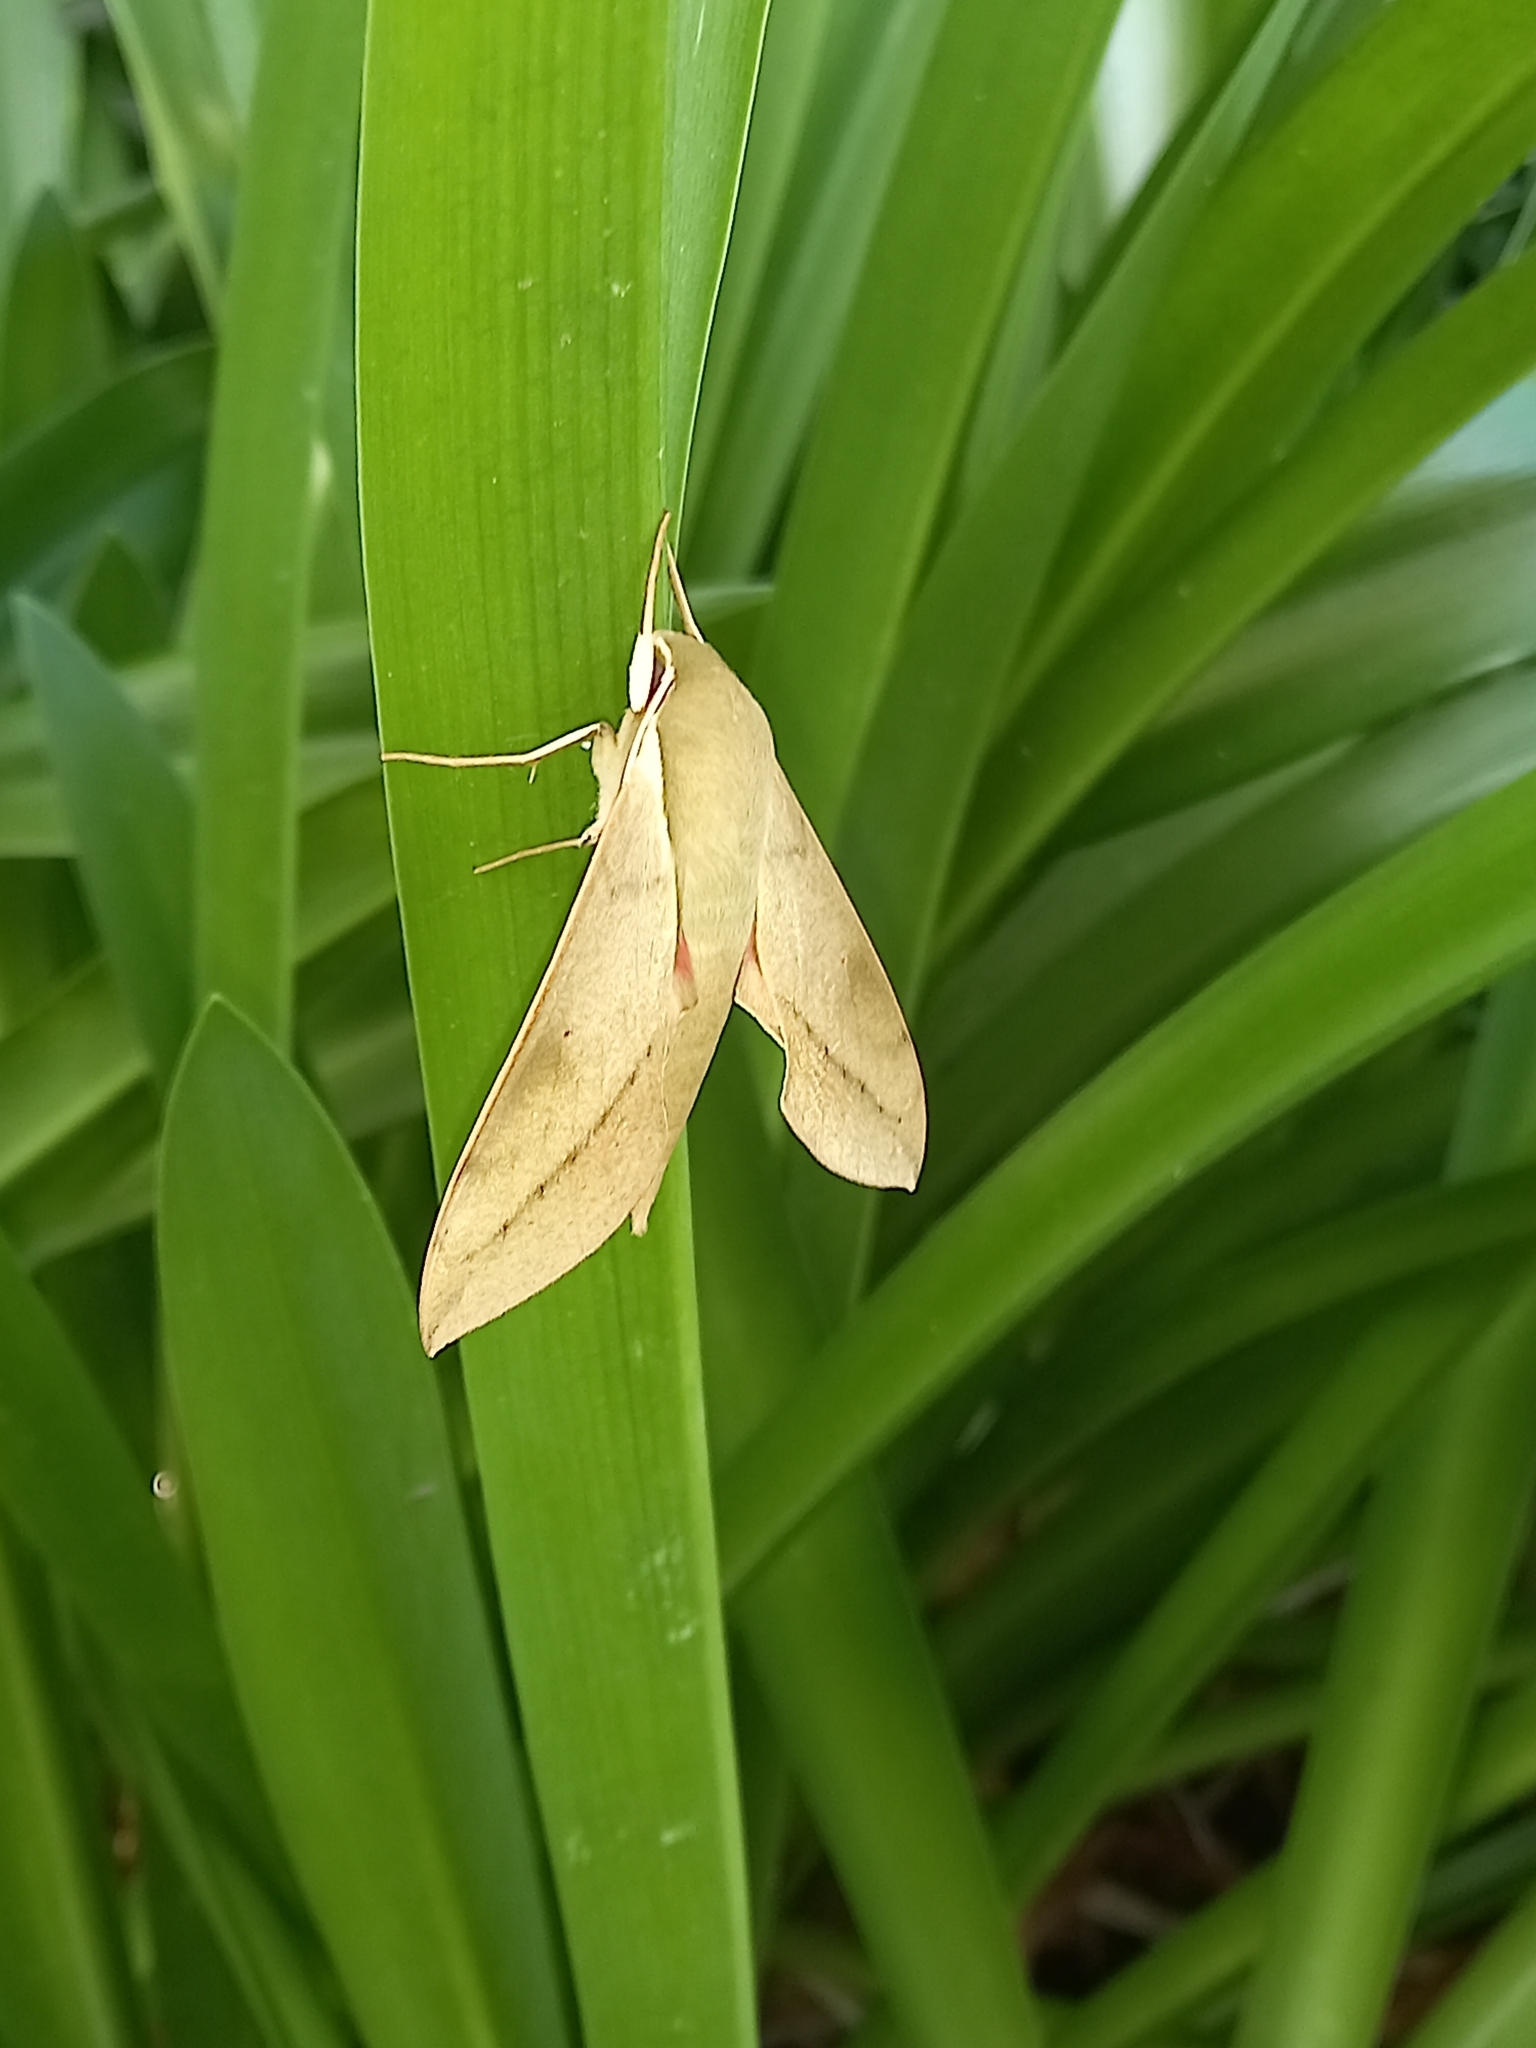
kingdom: Animalia
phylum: Arthropoda
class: Insecta
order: Lepidoptera
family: Sphingidae
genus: Theretra
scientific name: Theretra capensis
